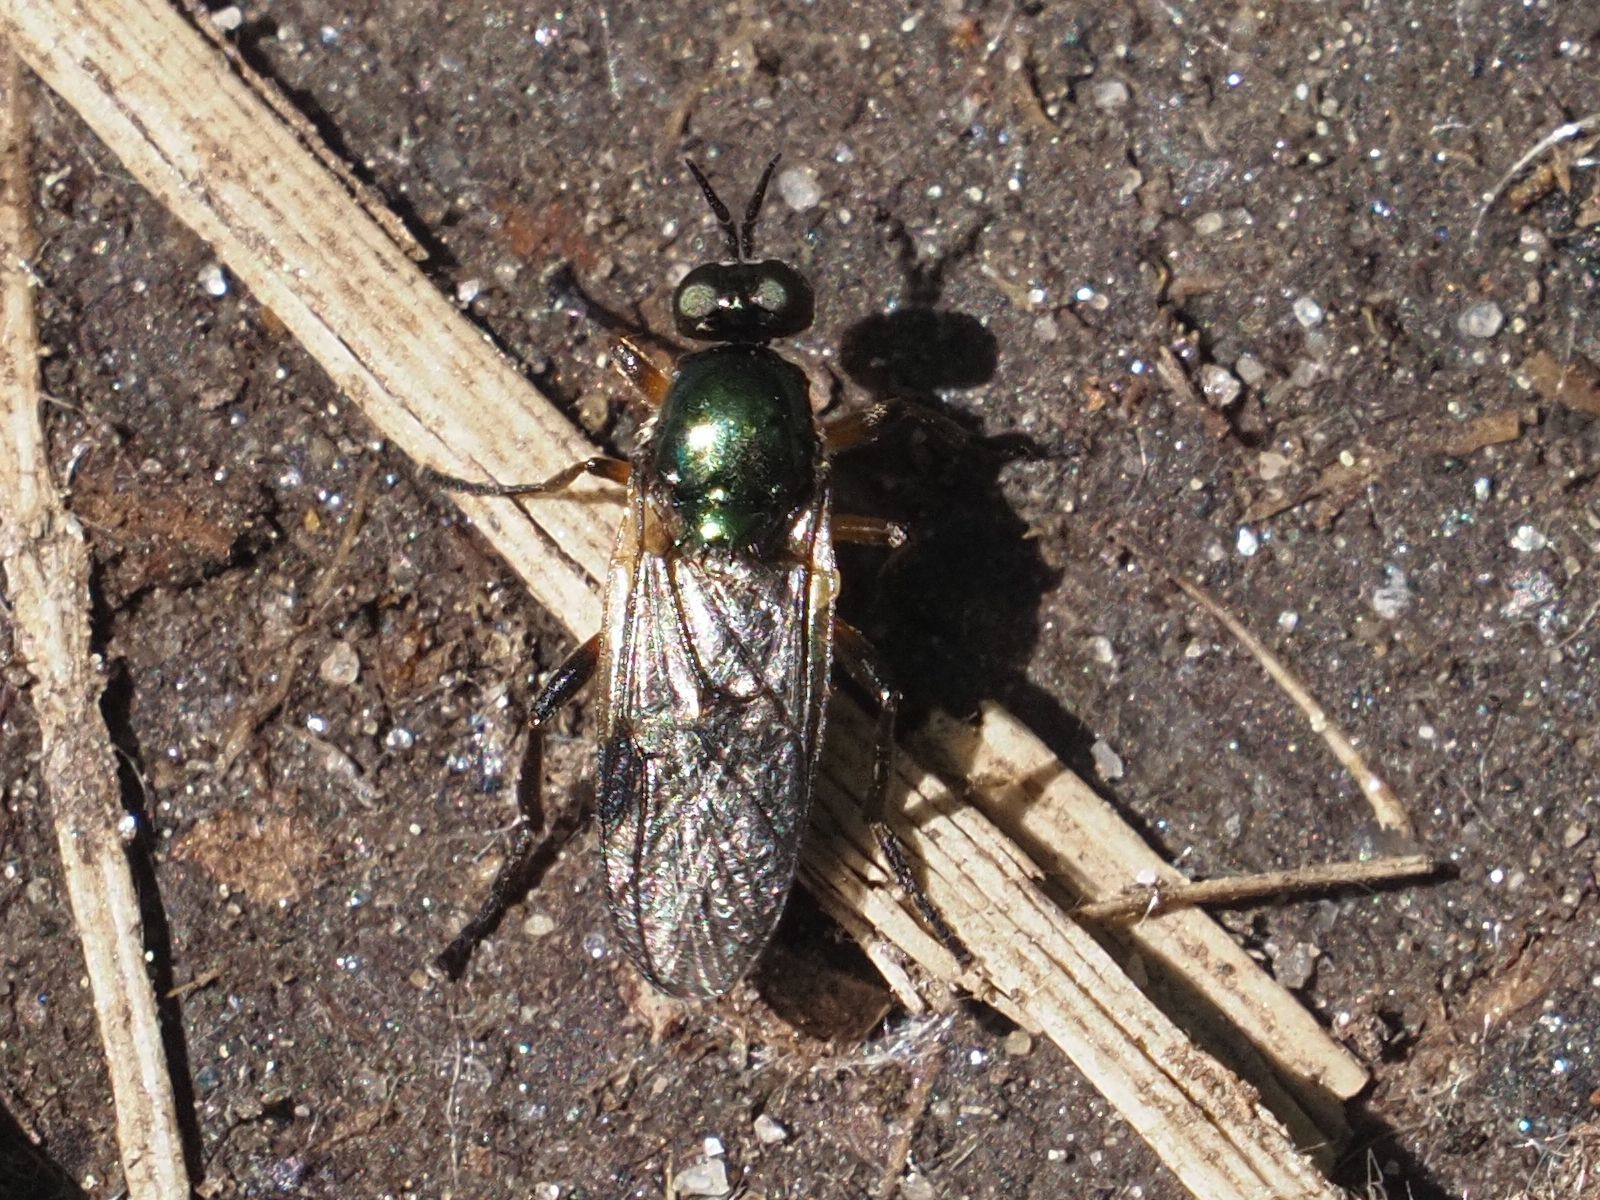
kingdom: Animalia
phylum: Arthropoda
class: Insecta
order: Diptera
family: Stratiomyidae
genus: Actina
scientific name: Actina chalybea
